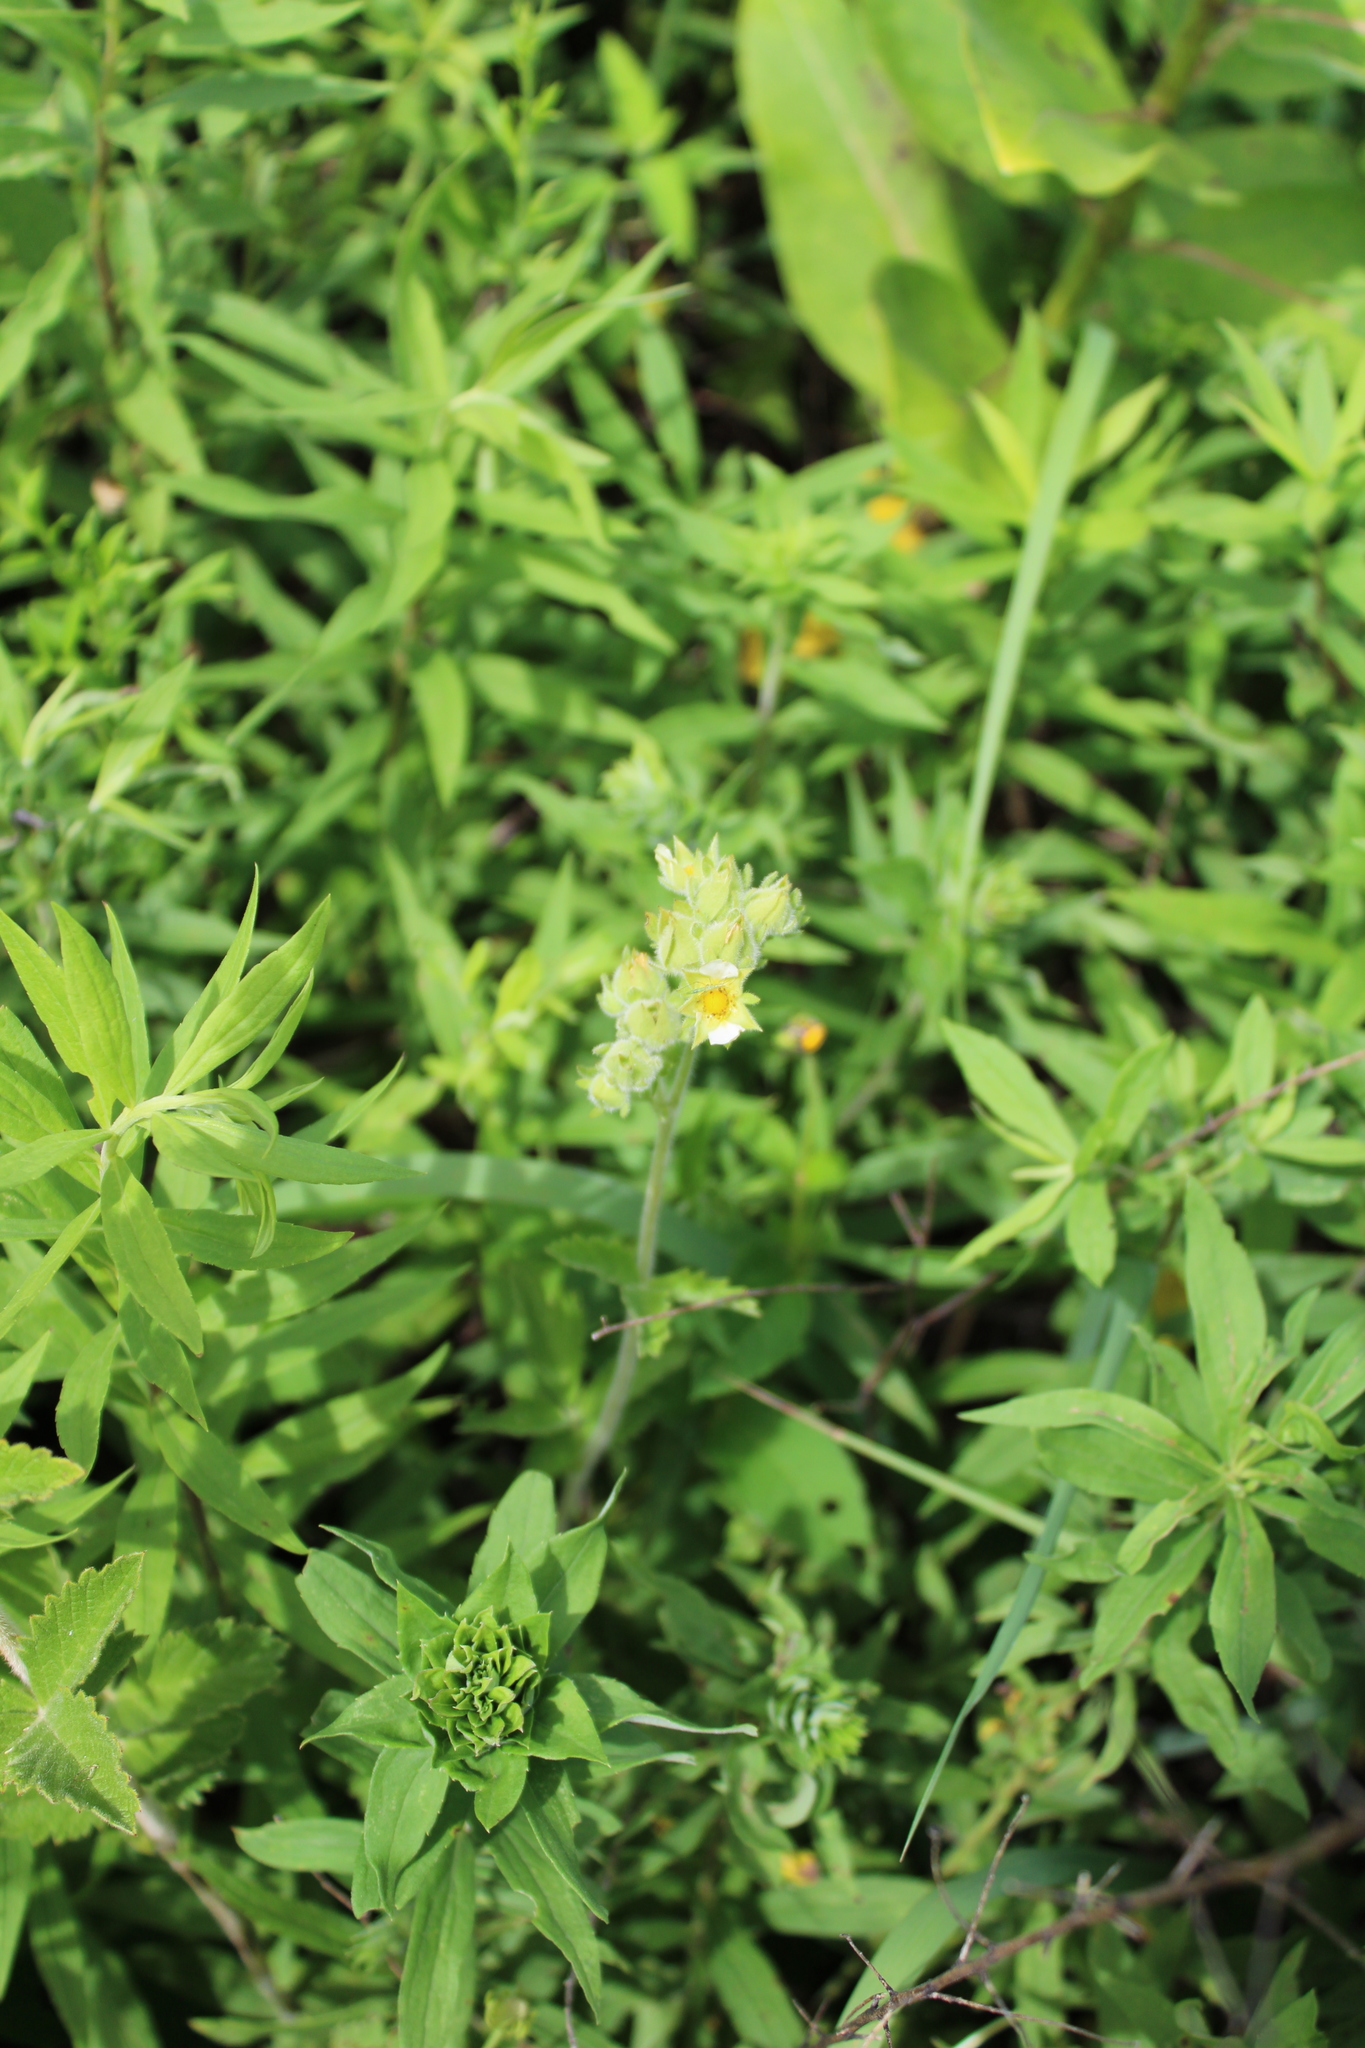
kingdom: Plantae
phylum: Tracheophyta
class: Magnoliopsida
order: Rosales
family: Rosaceae
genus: Drymocallis
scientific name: Drymocallis arguta
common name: Tall cinquefoil
